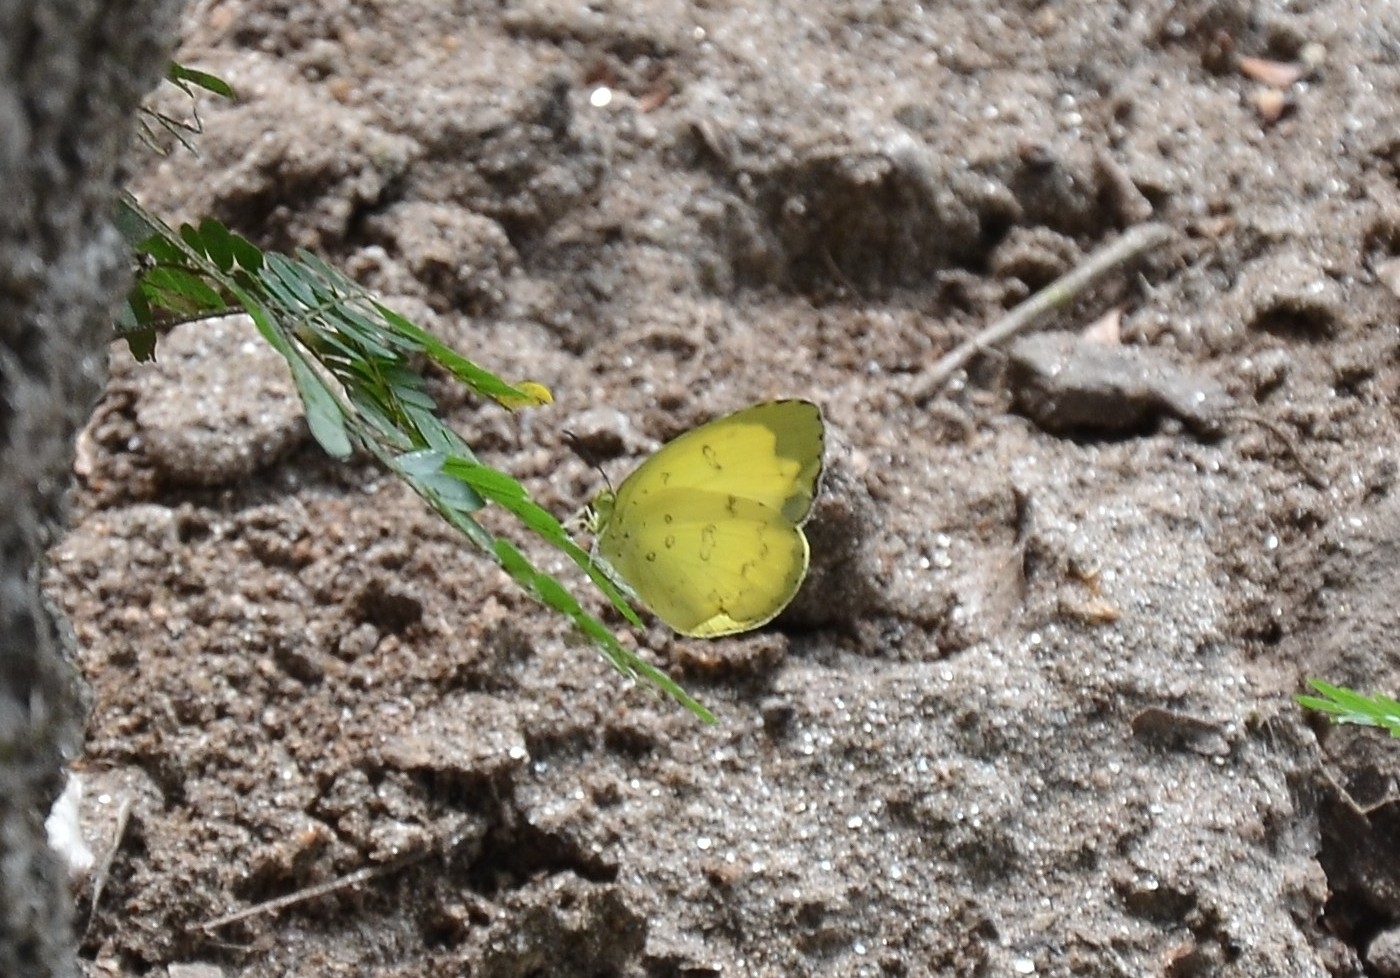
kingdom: Animalia
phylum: Arthropoda
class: Insecta
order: Lepidoptera
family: Pieridae
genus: Eurema
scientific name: Eurema blanda
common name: Three-spot grass yellow
